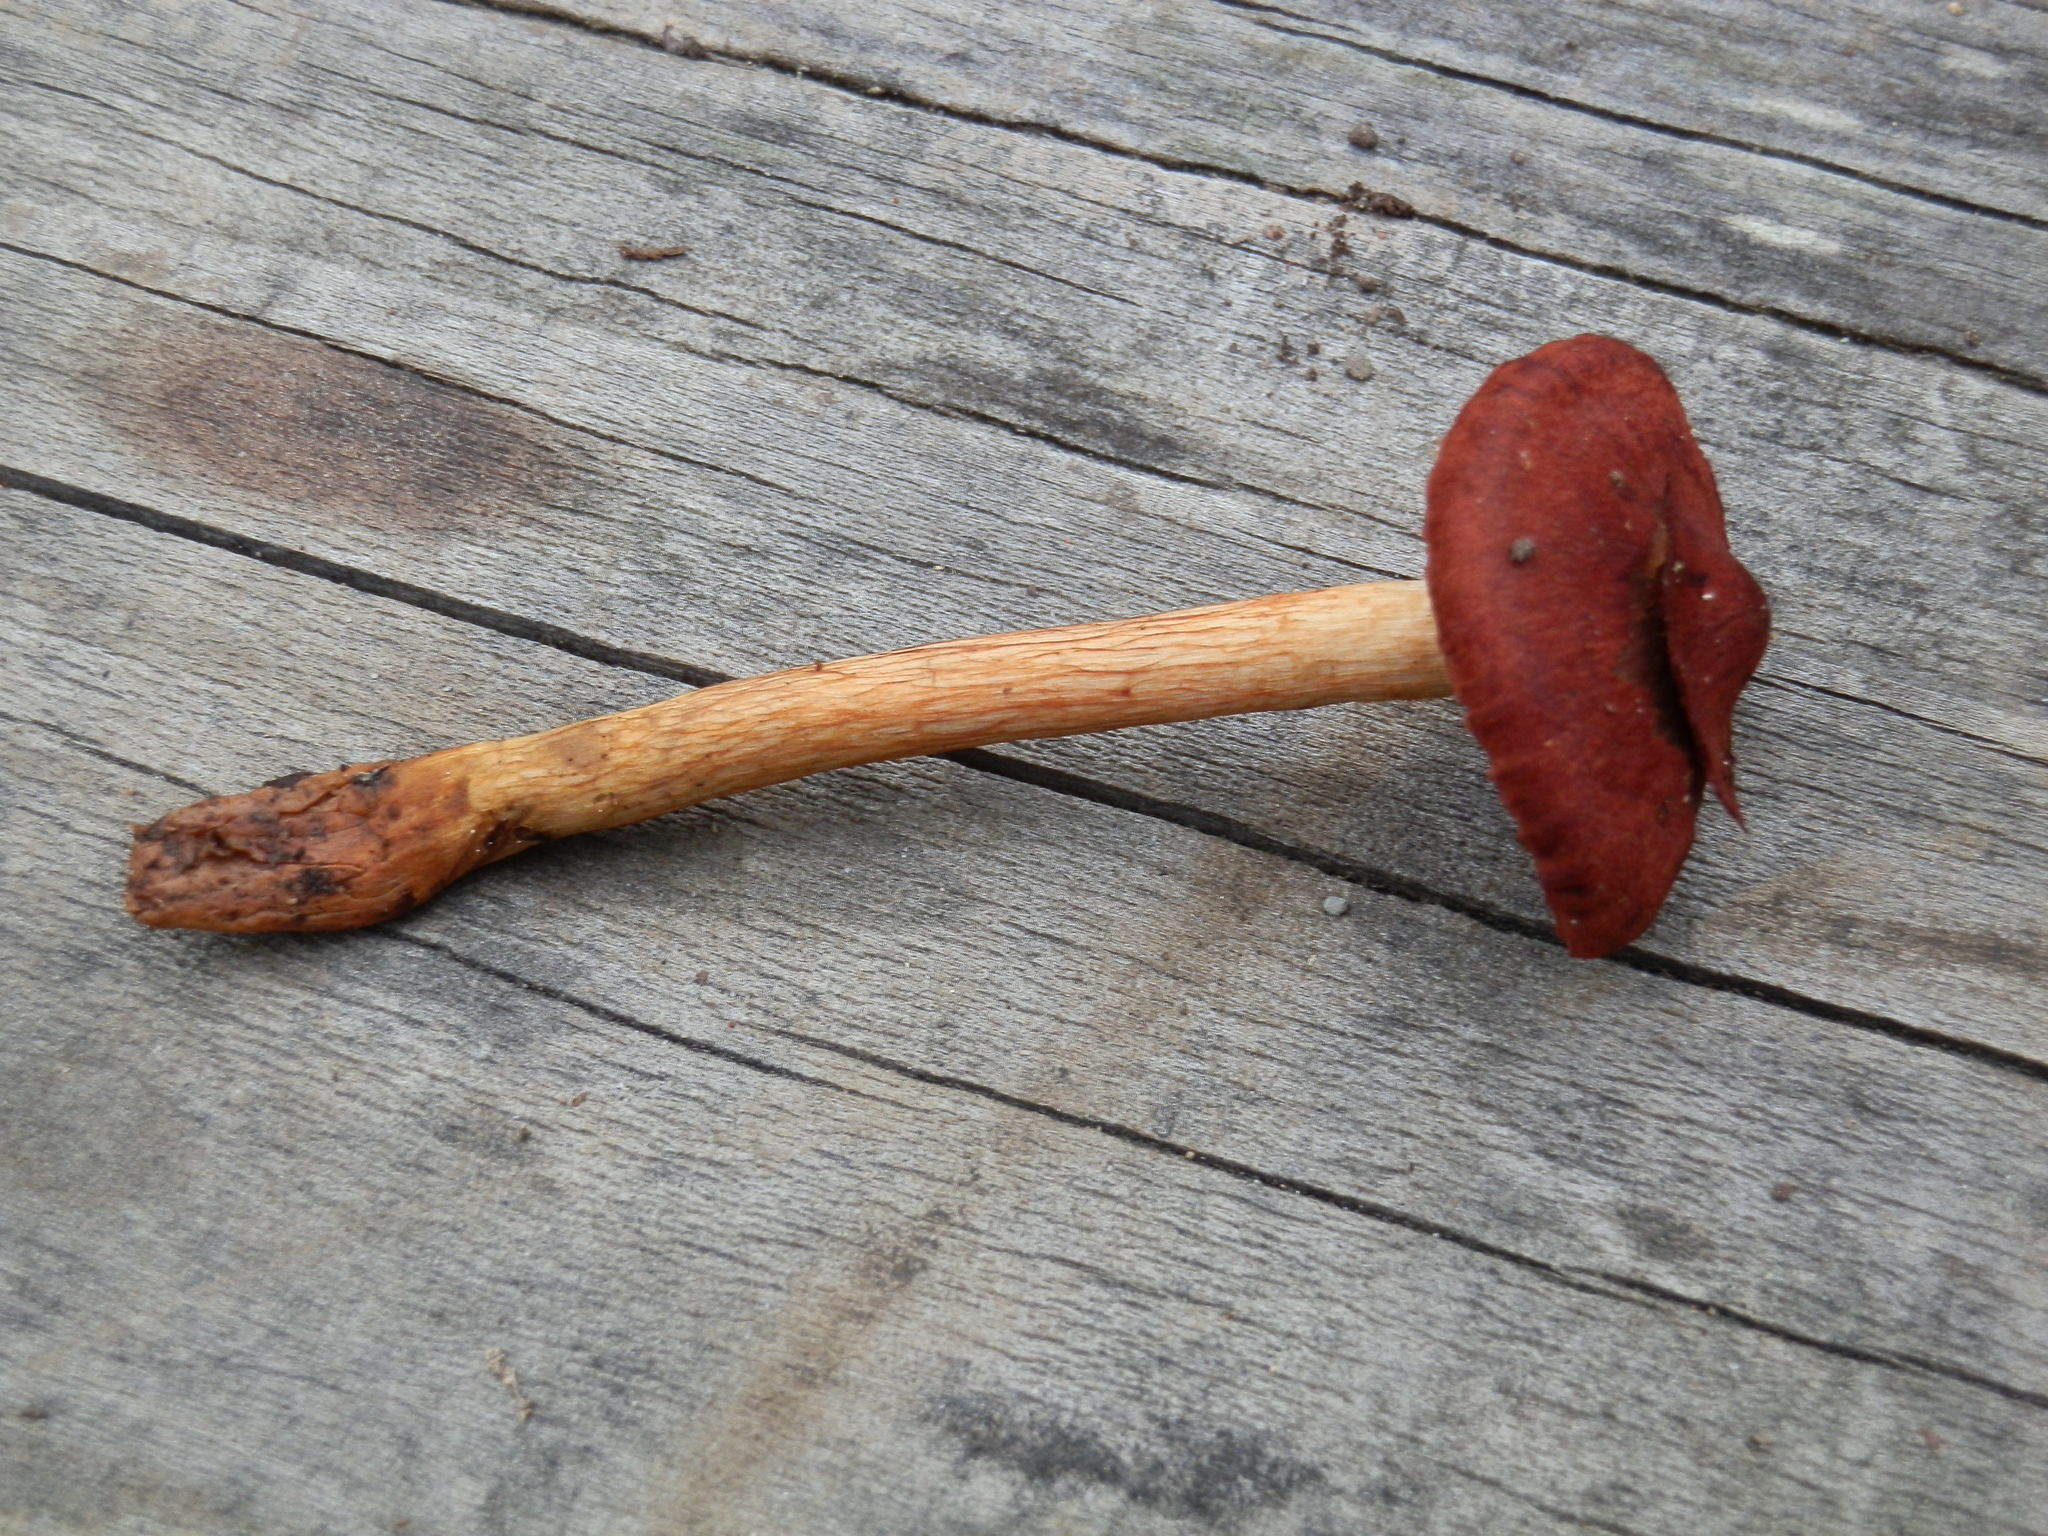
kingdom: Fungi
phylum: Basidiomycota
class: Agaricomycetes
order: Agaricales
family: Cortinariaceae
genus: Cortinarius
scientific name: Cortinarius smithii
